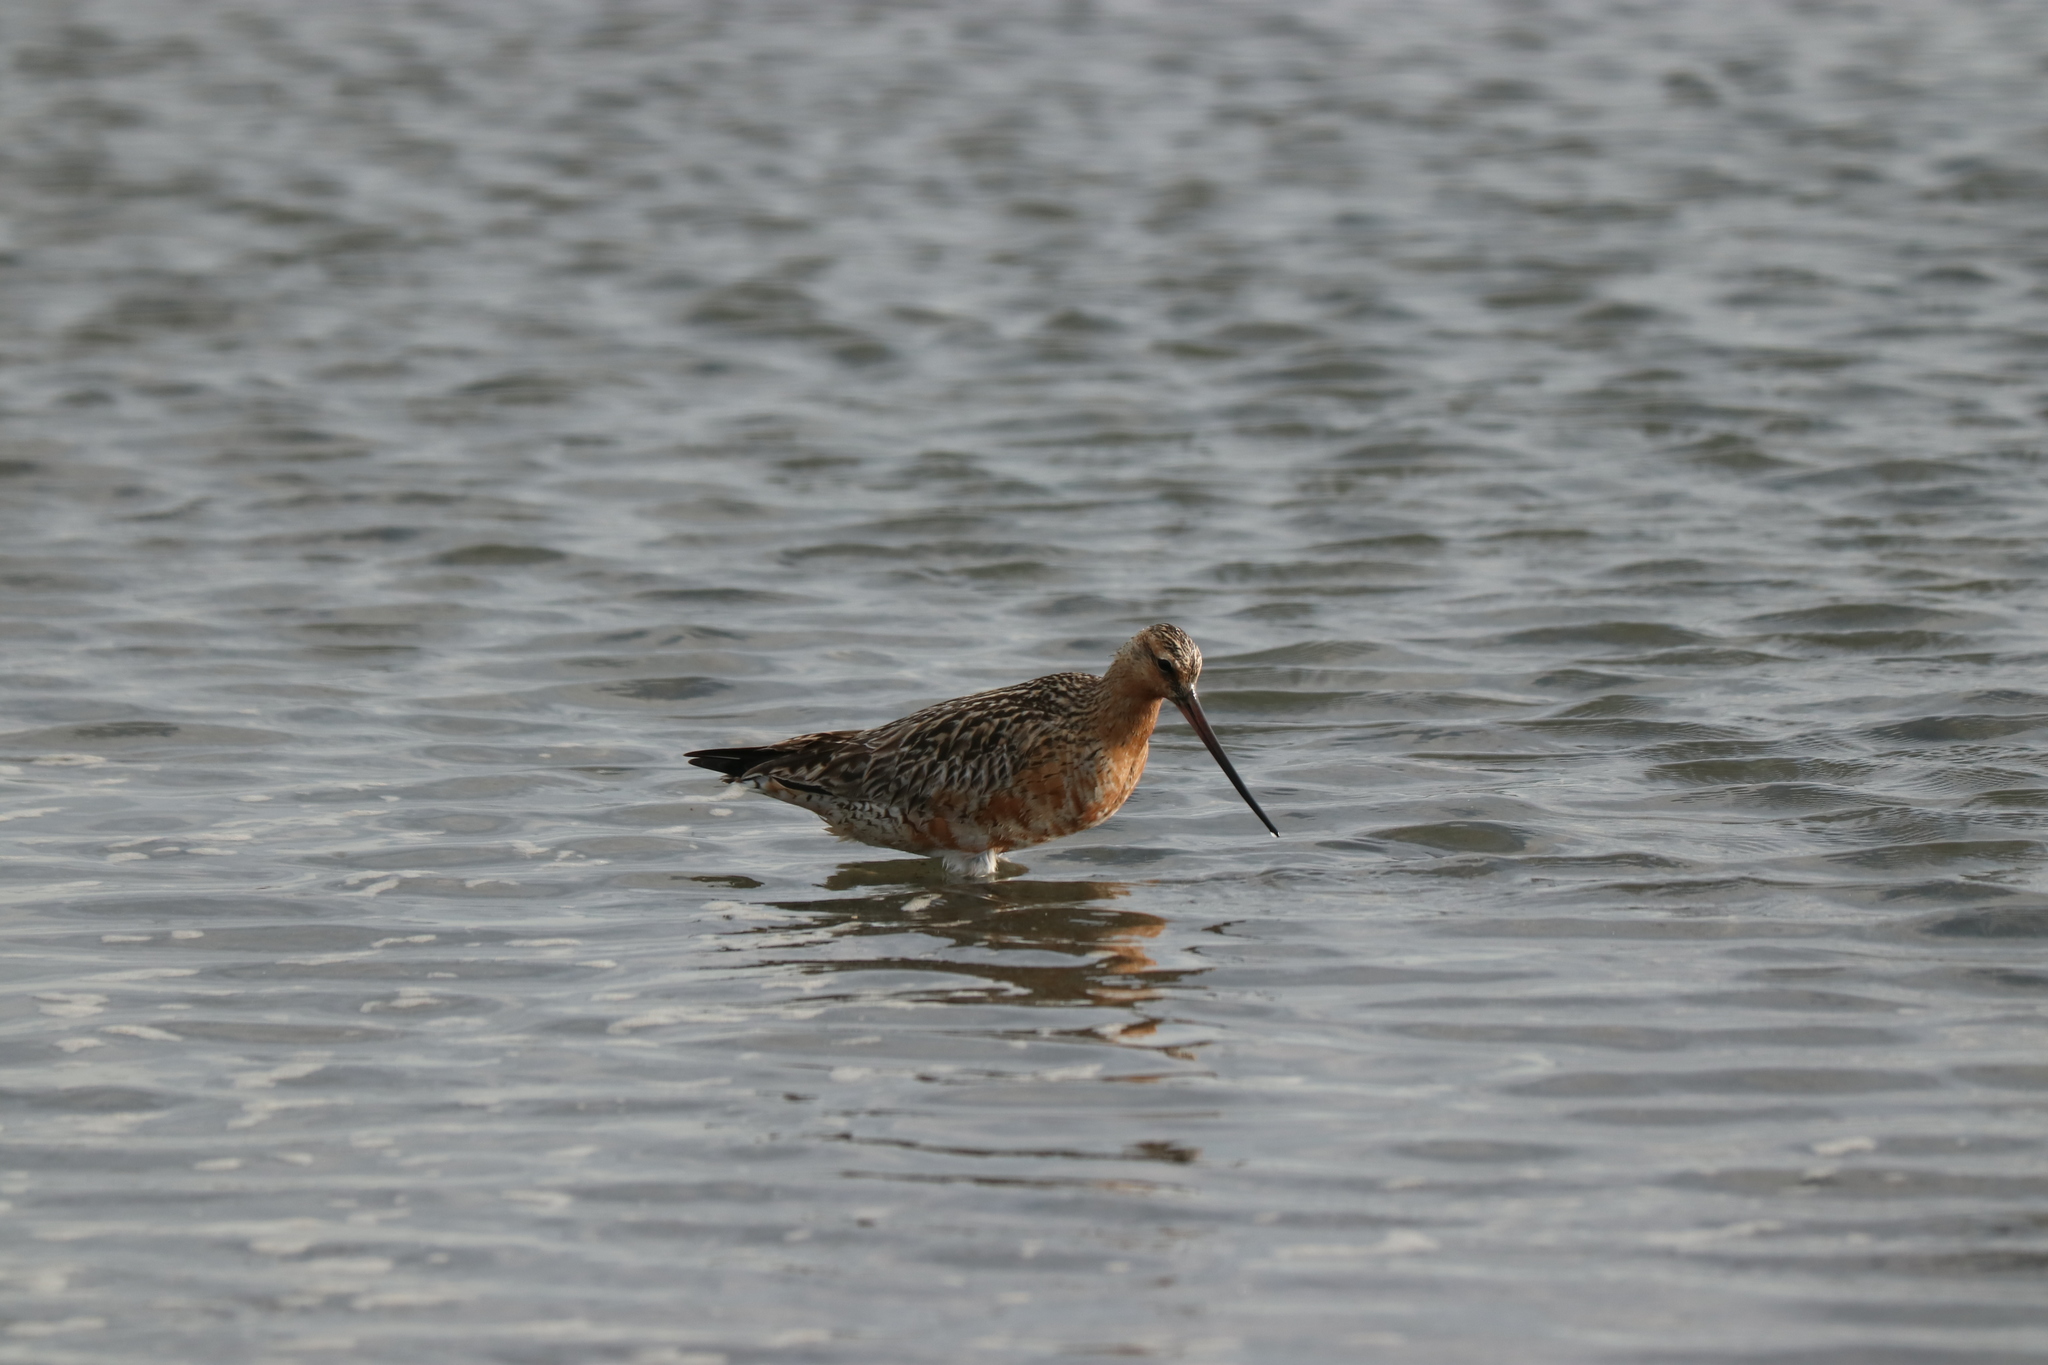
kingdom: Animalia
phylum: Chordata
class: Aves
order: Charadriiformes
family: Scolopacidae
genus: Limosa
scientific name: Limosa lapponica
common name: Bar-tailed godwit
